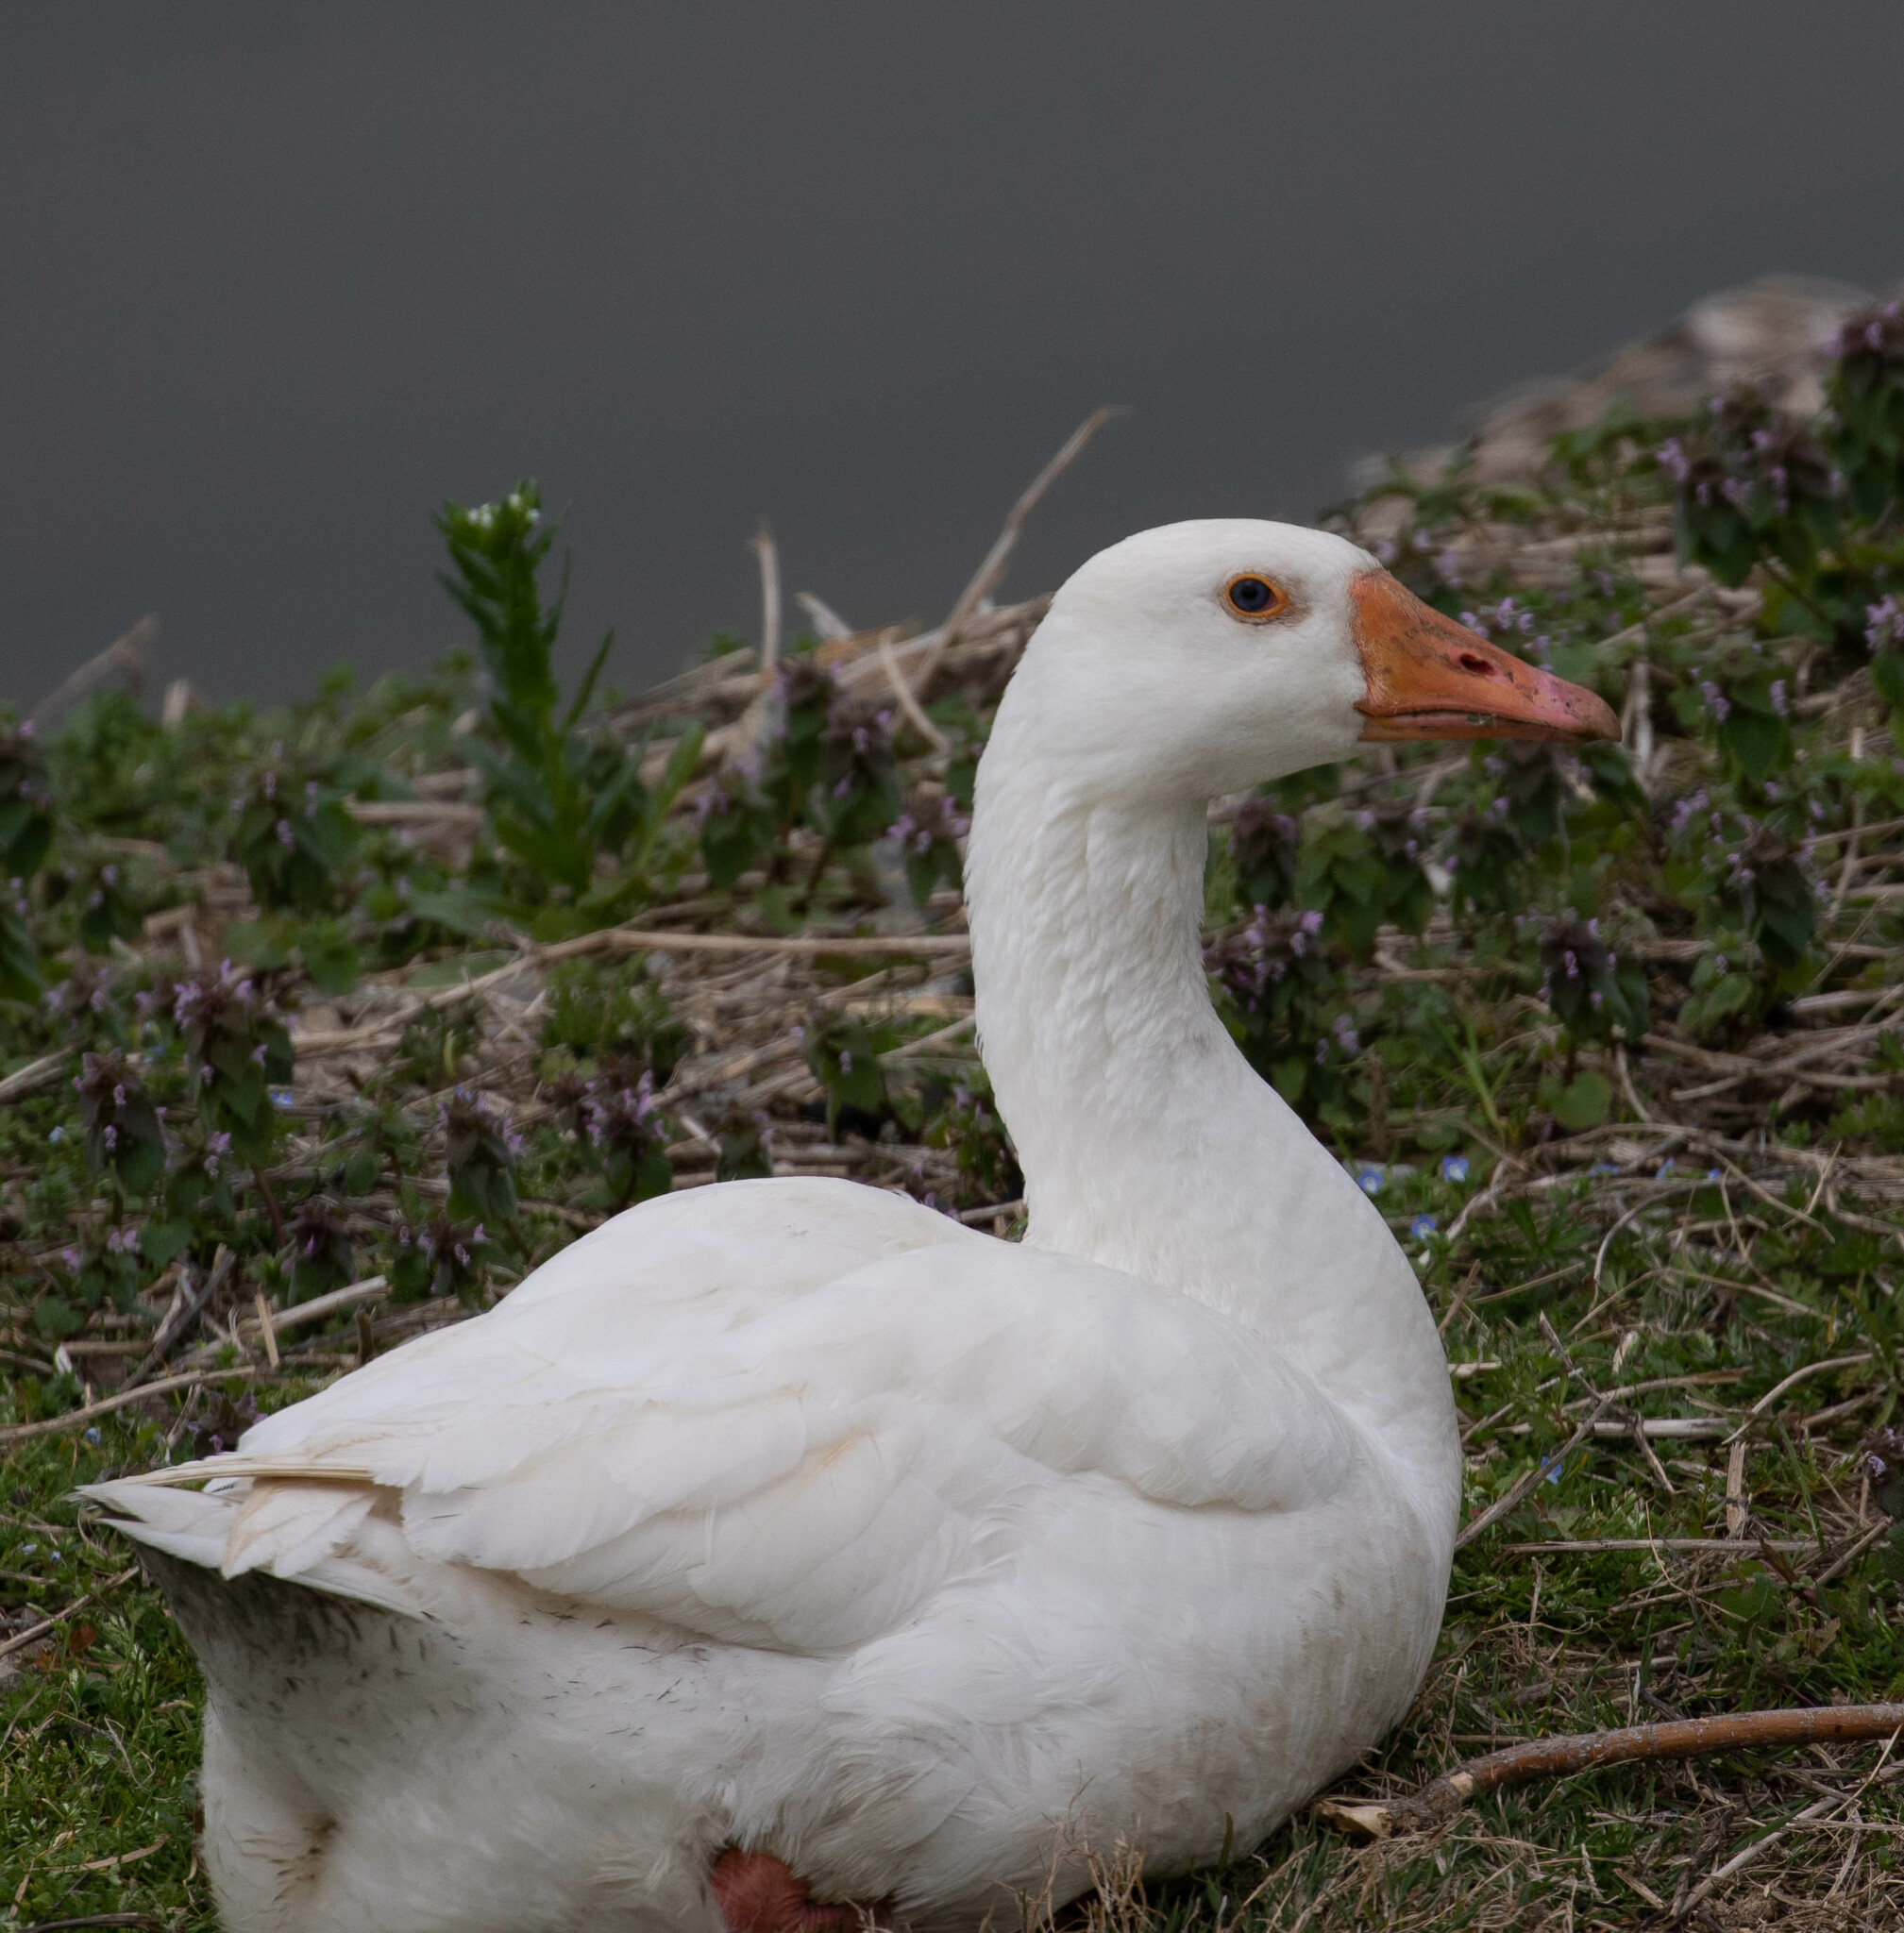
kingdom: Animalia
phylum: Chordata
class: Aves
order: Anseriformes
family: Anatidae
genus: Anser
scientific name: Anser
